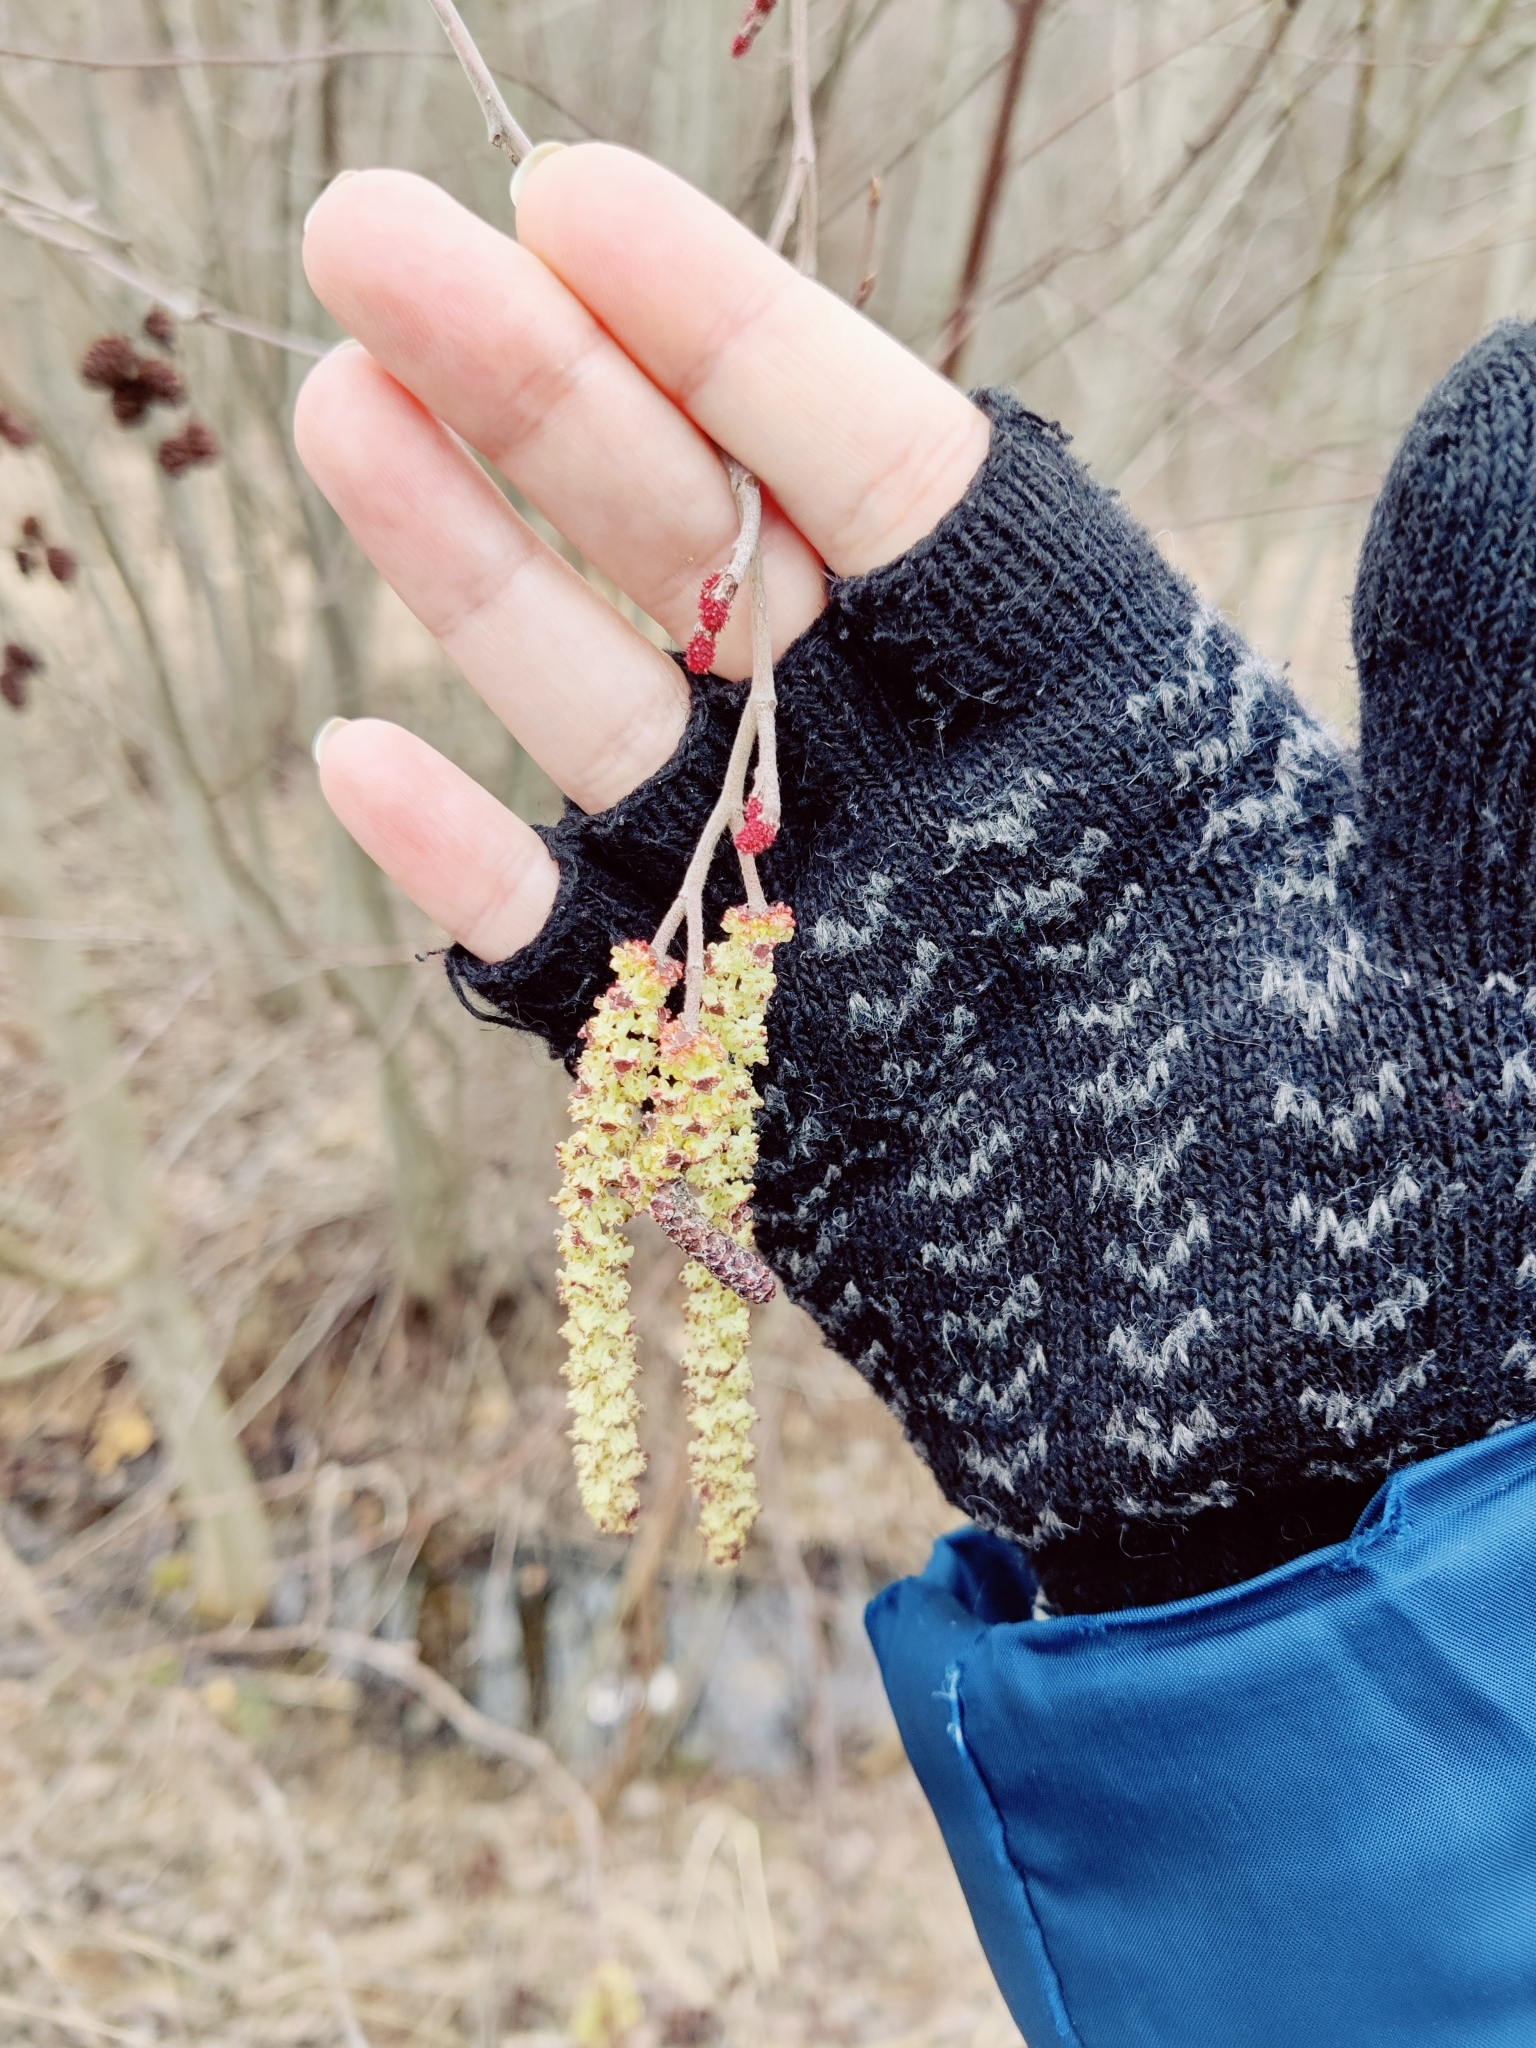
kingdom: Plantae
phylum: Tracheophyta
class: Magnoliopsida
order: Fagales
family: Betulaceae
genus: Alnus
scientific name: Alnus incana
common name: Grey alder
